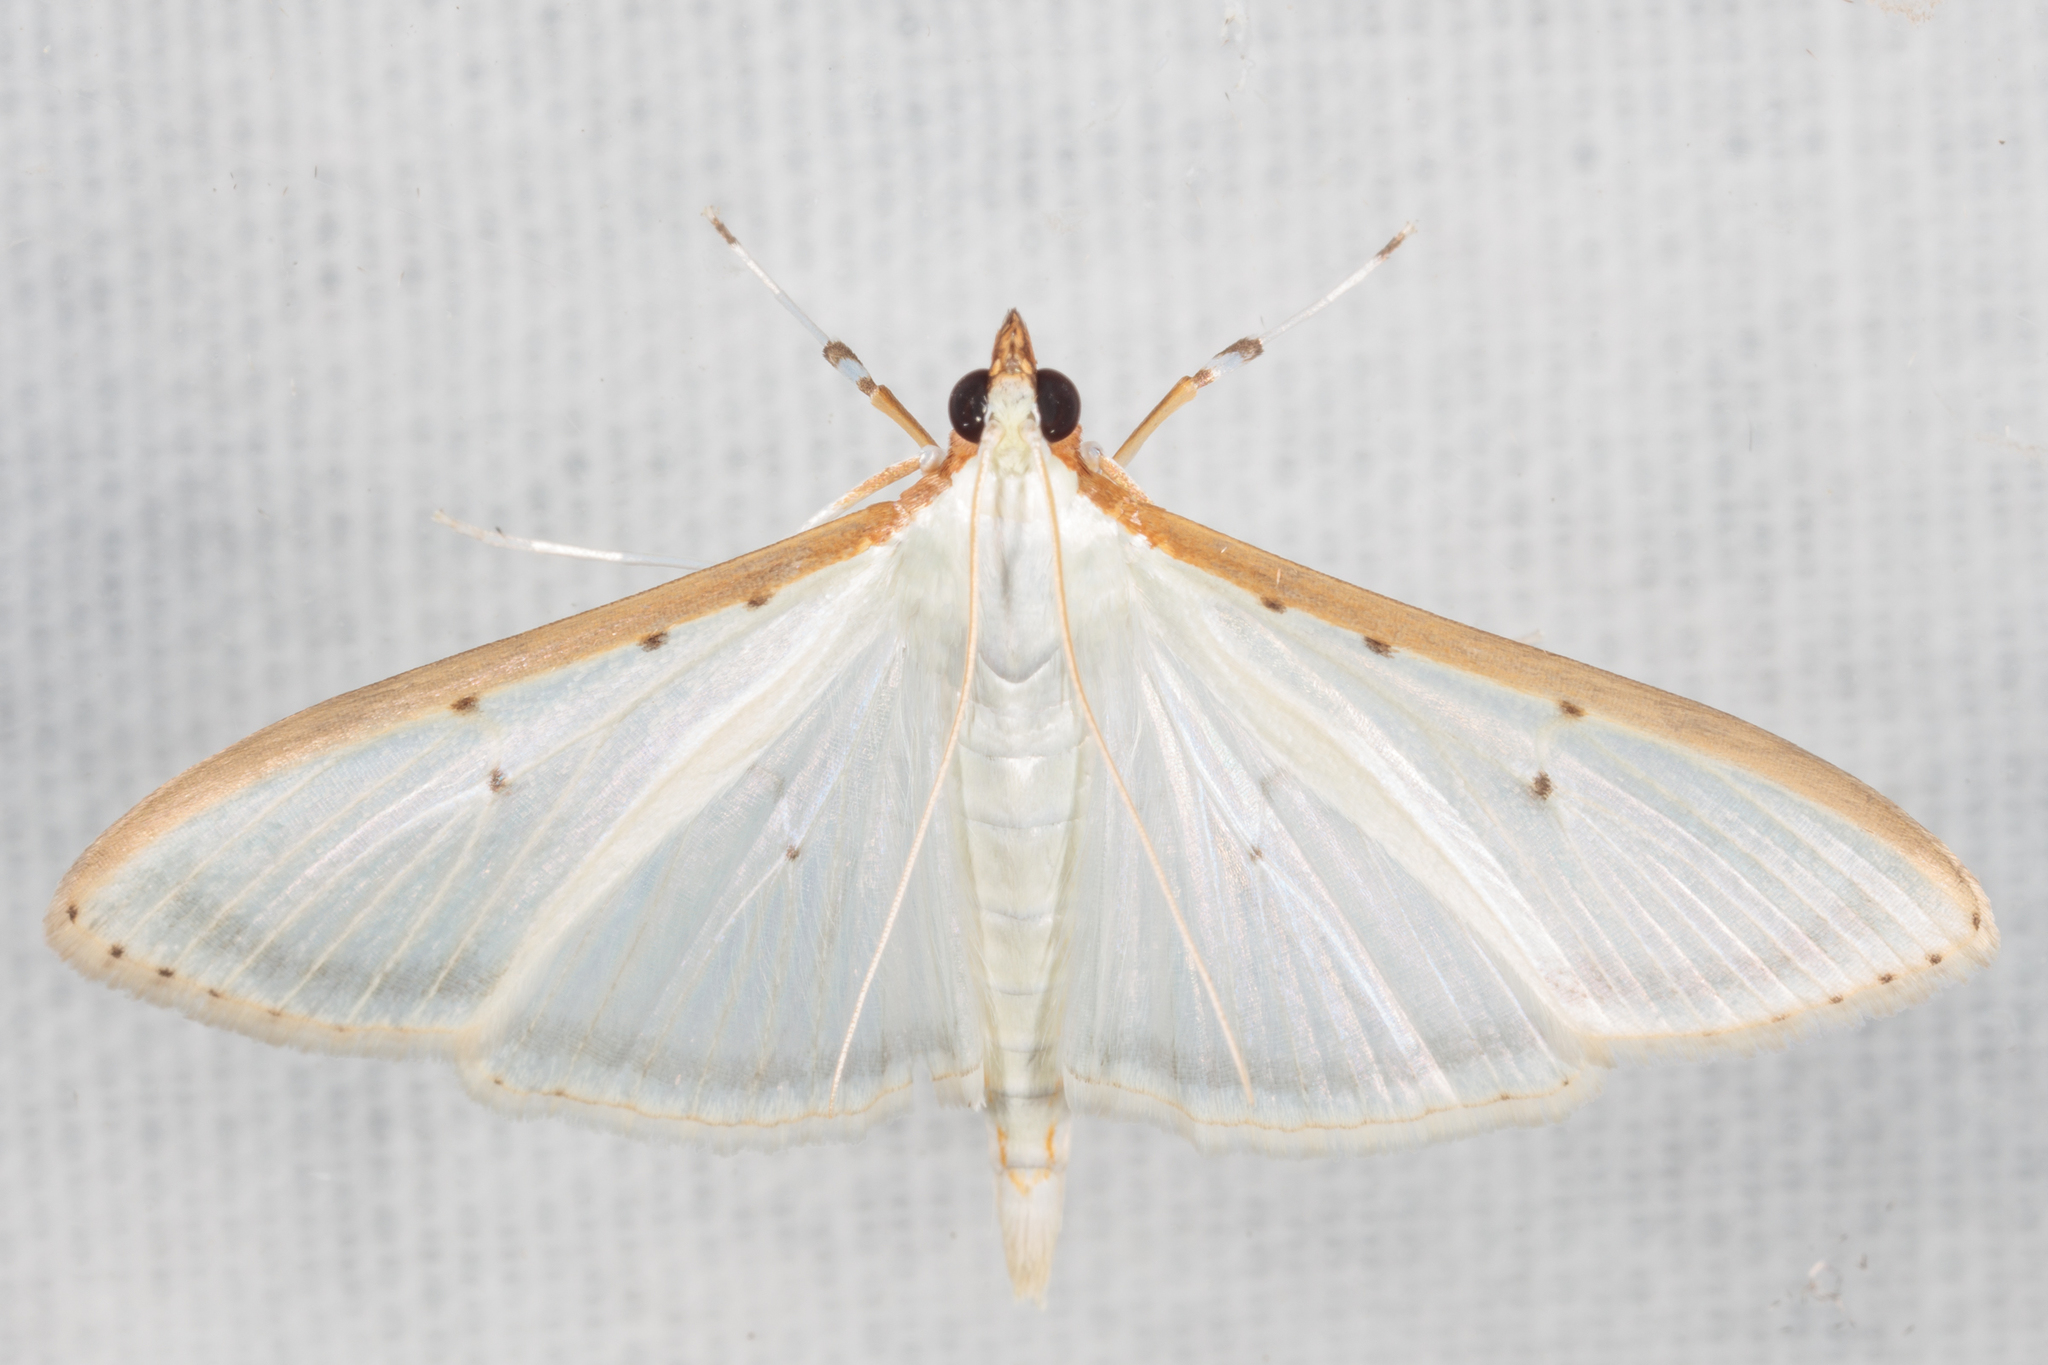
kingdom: Animalia
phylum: Arthropoda
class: Insecta
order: Lepidoptera
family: Crambidae
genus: Palpita
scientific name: Palpita quadristigmalis
